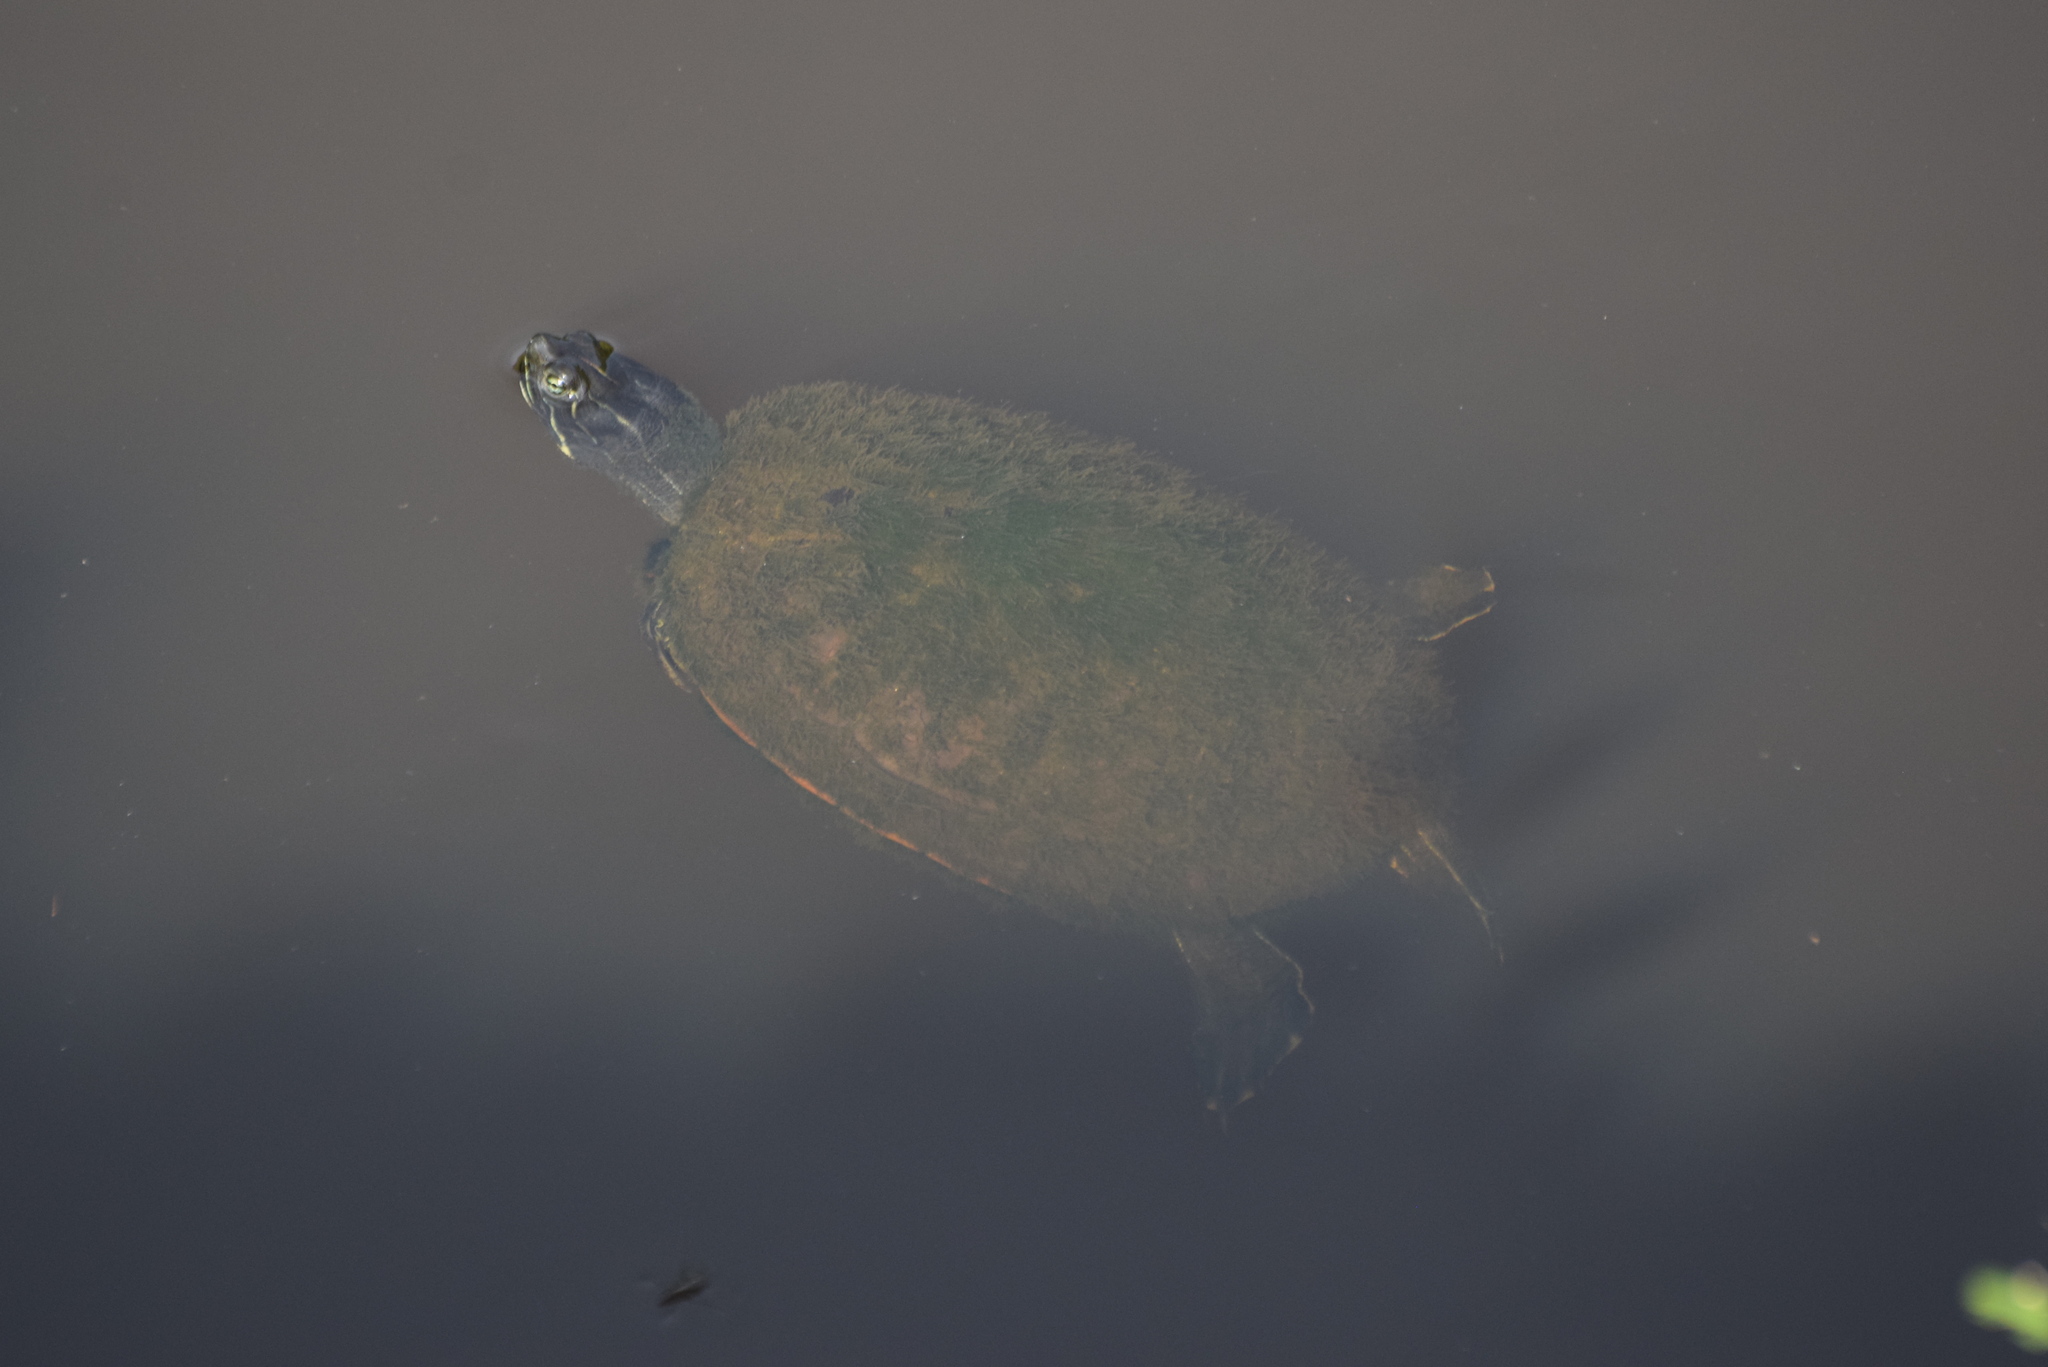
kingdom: Animalia
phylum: Chordata
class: Testudines
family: Emydidae
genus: Pseudemys
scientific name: Pseudemys rubriventris
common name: American red-bellied turtle
